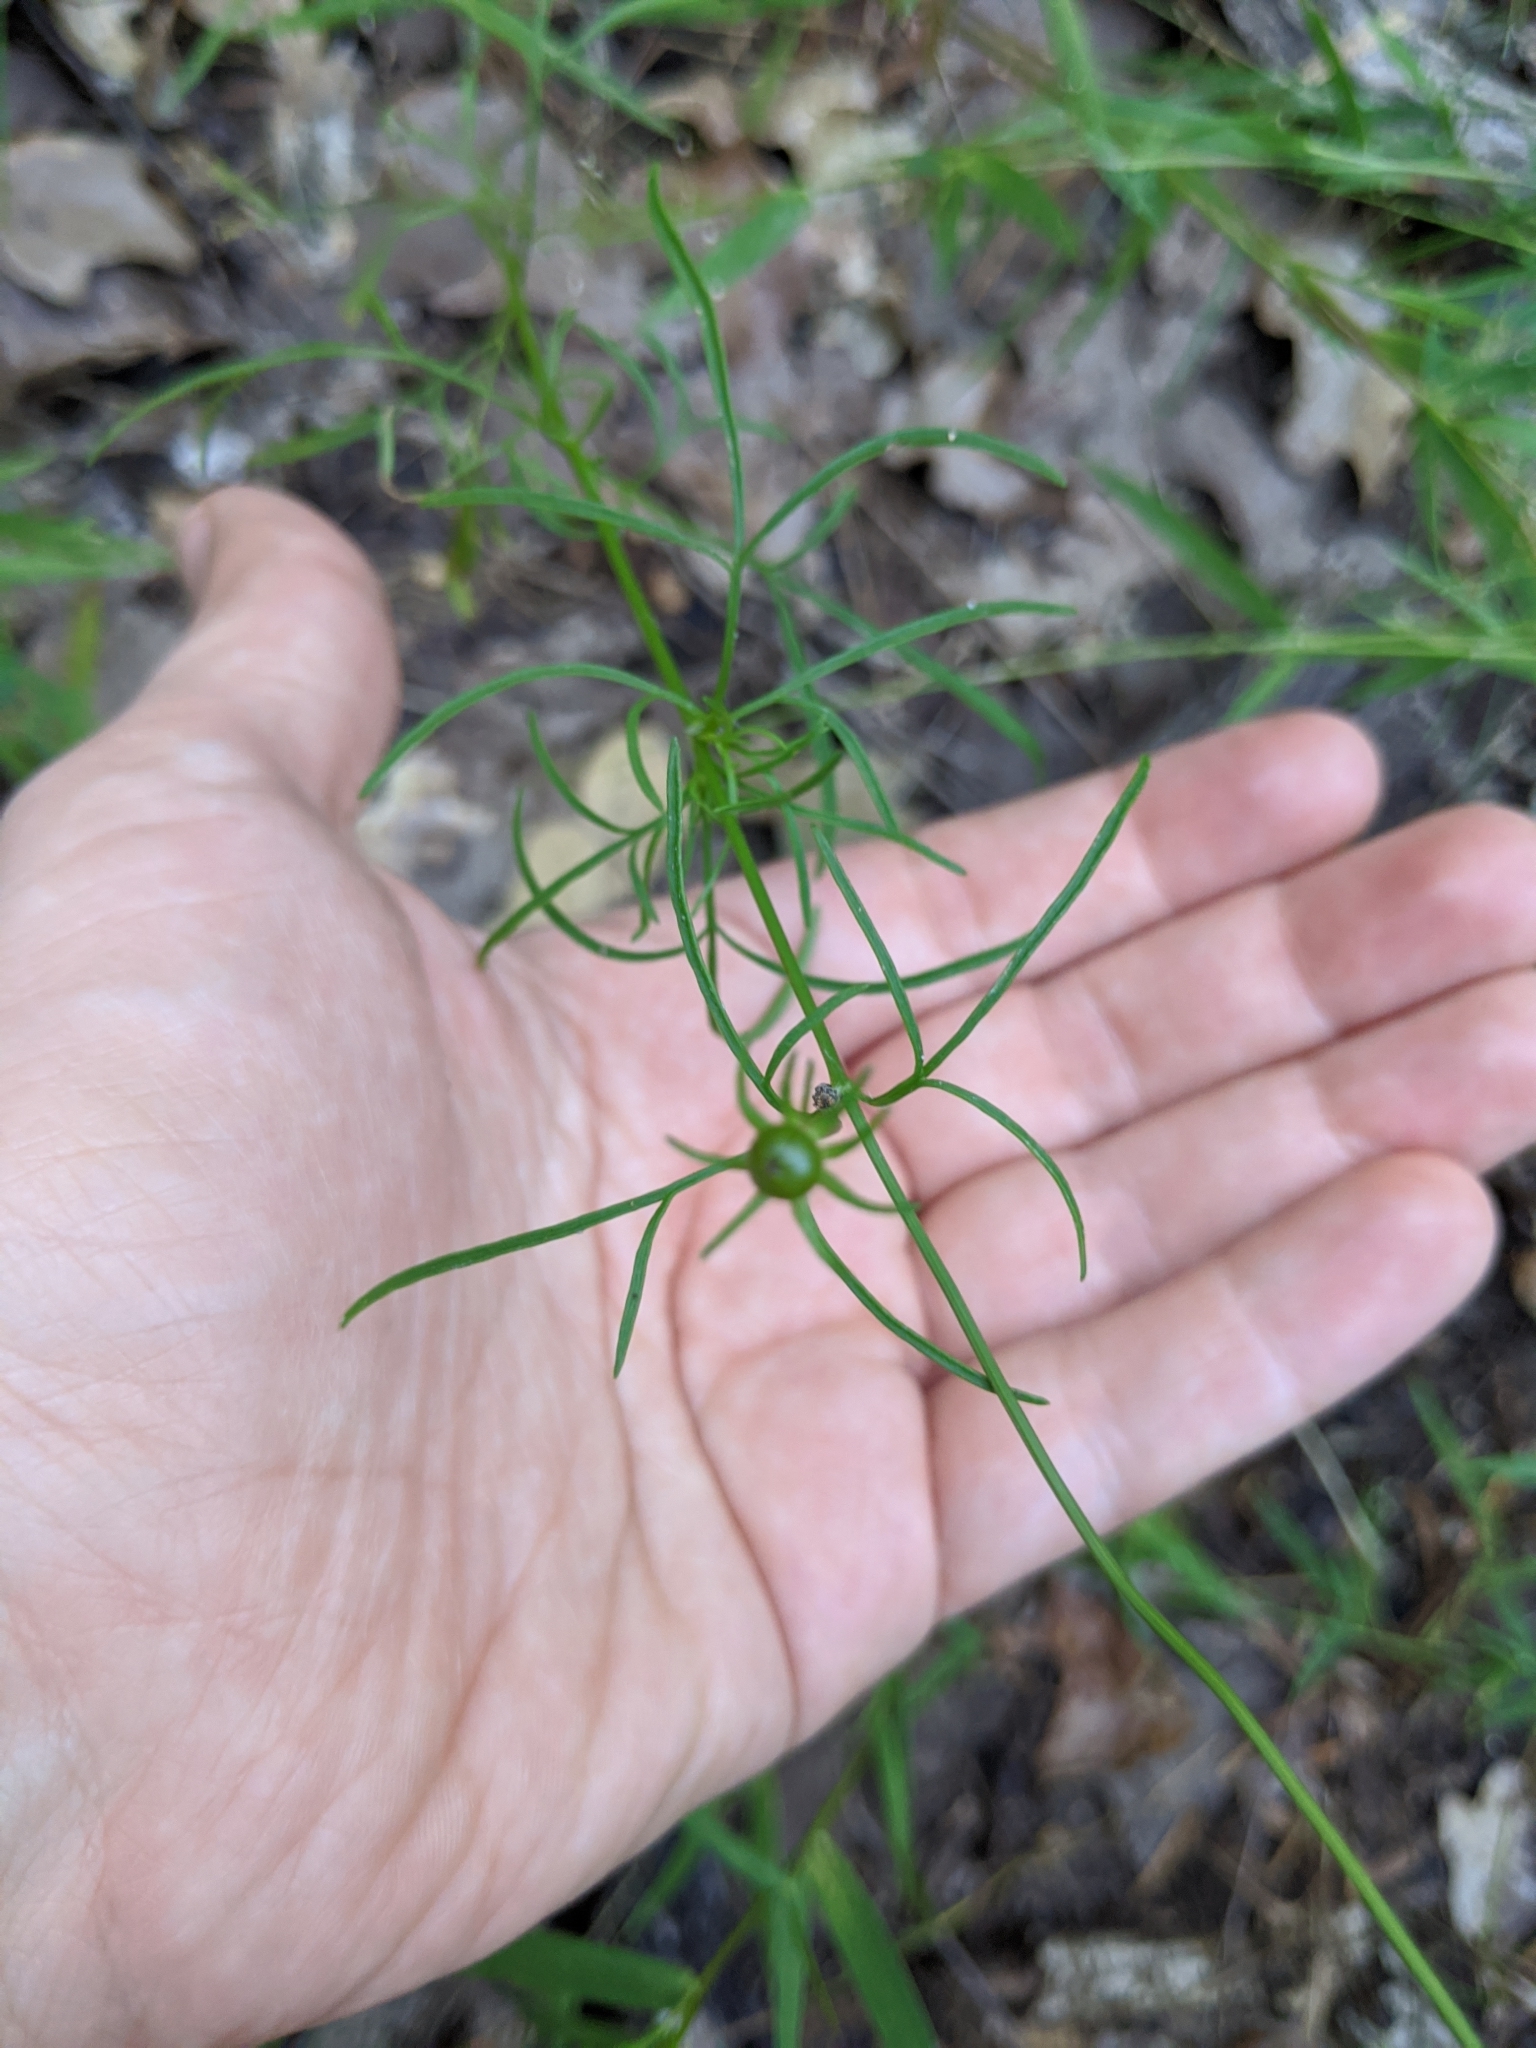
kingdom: Plantae
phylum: Tracheophyta
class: Magnoliopsida
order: Asterales
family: Asteraceae
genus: Coreopsis
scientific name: Coreopsis basalis
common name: Golden-mane coreopsis
